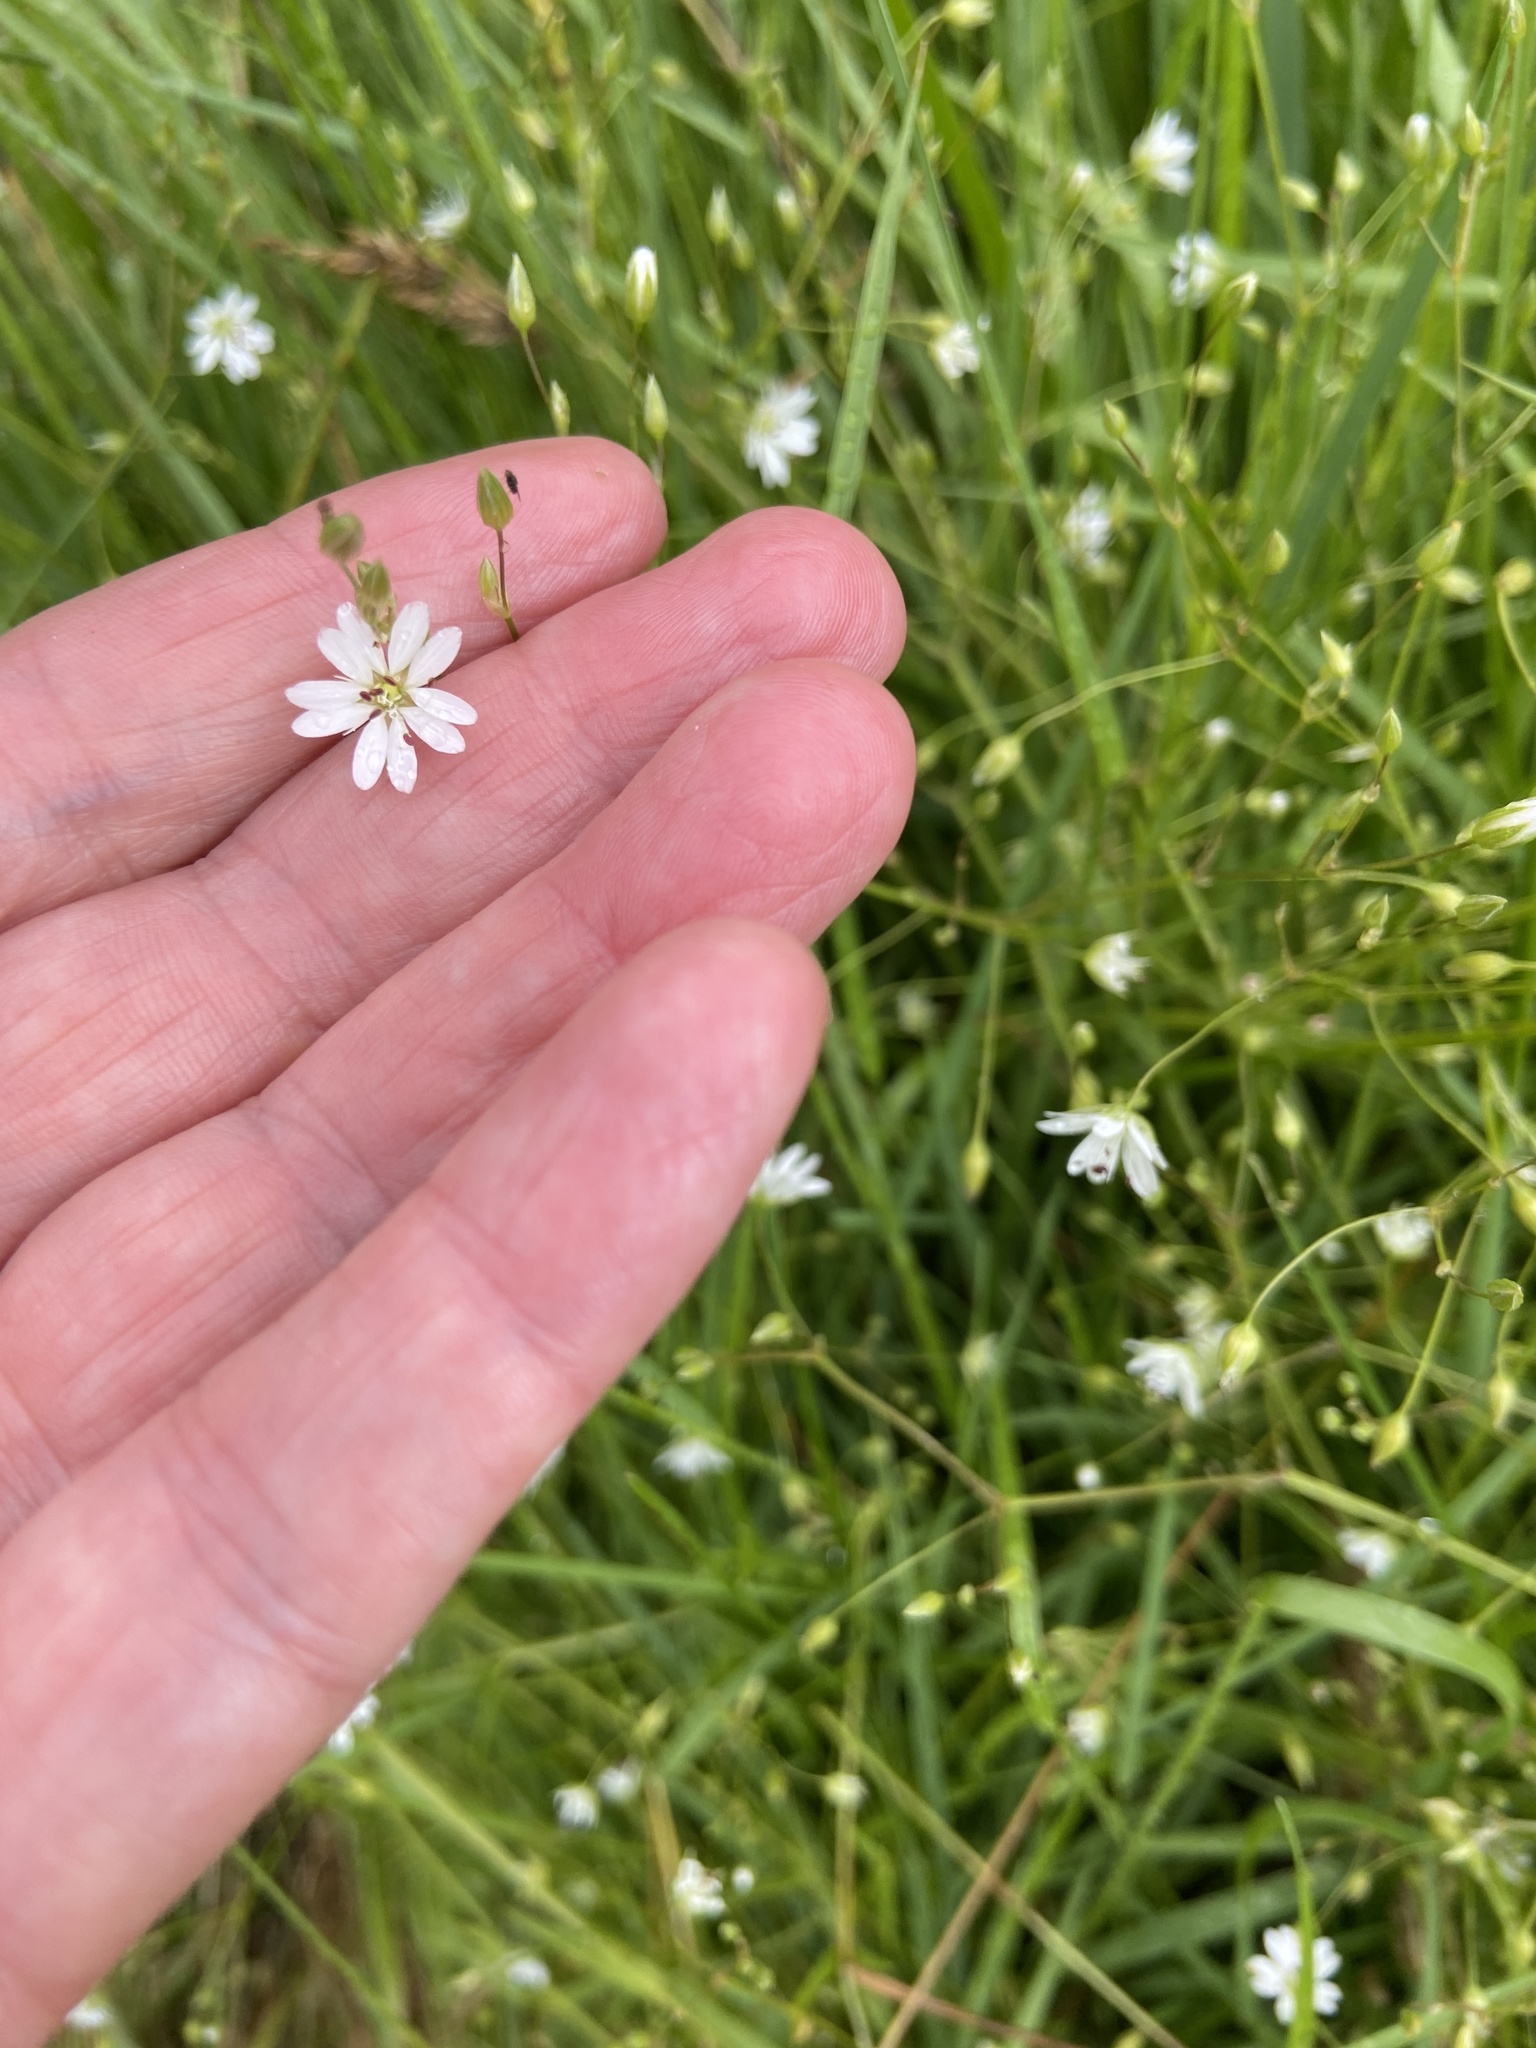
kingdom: Plantae
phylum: Tracheophyta
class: Magnoliopsida
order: Caryophyllales
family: Caryophyllaceae
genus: Stellaria
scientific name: Stellaria graminea
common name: Grass-like starwort
